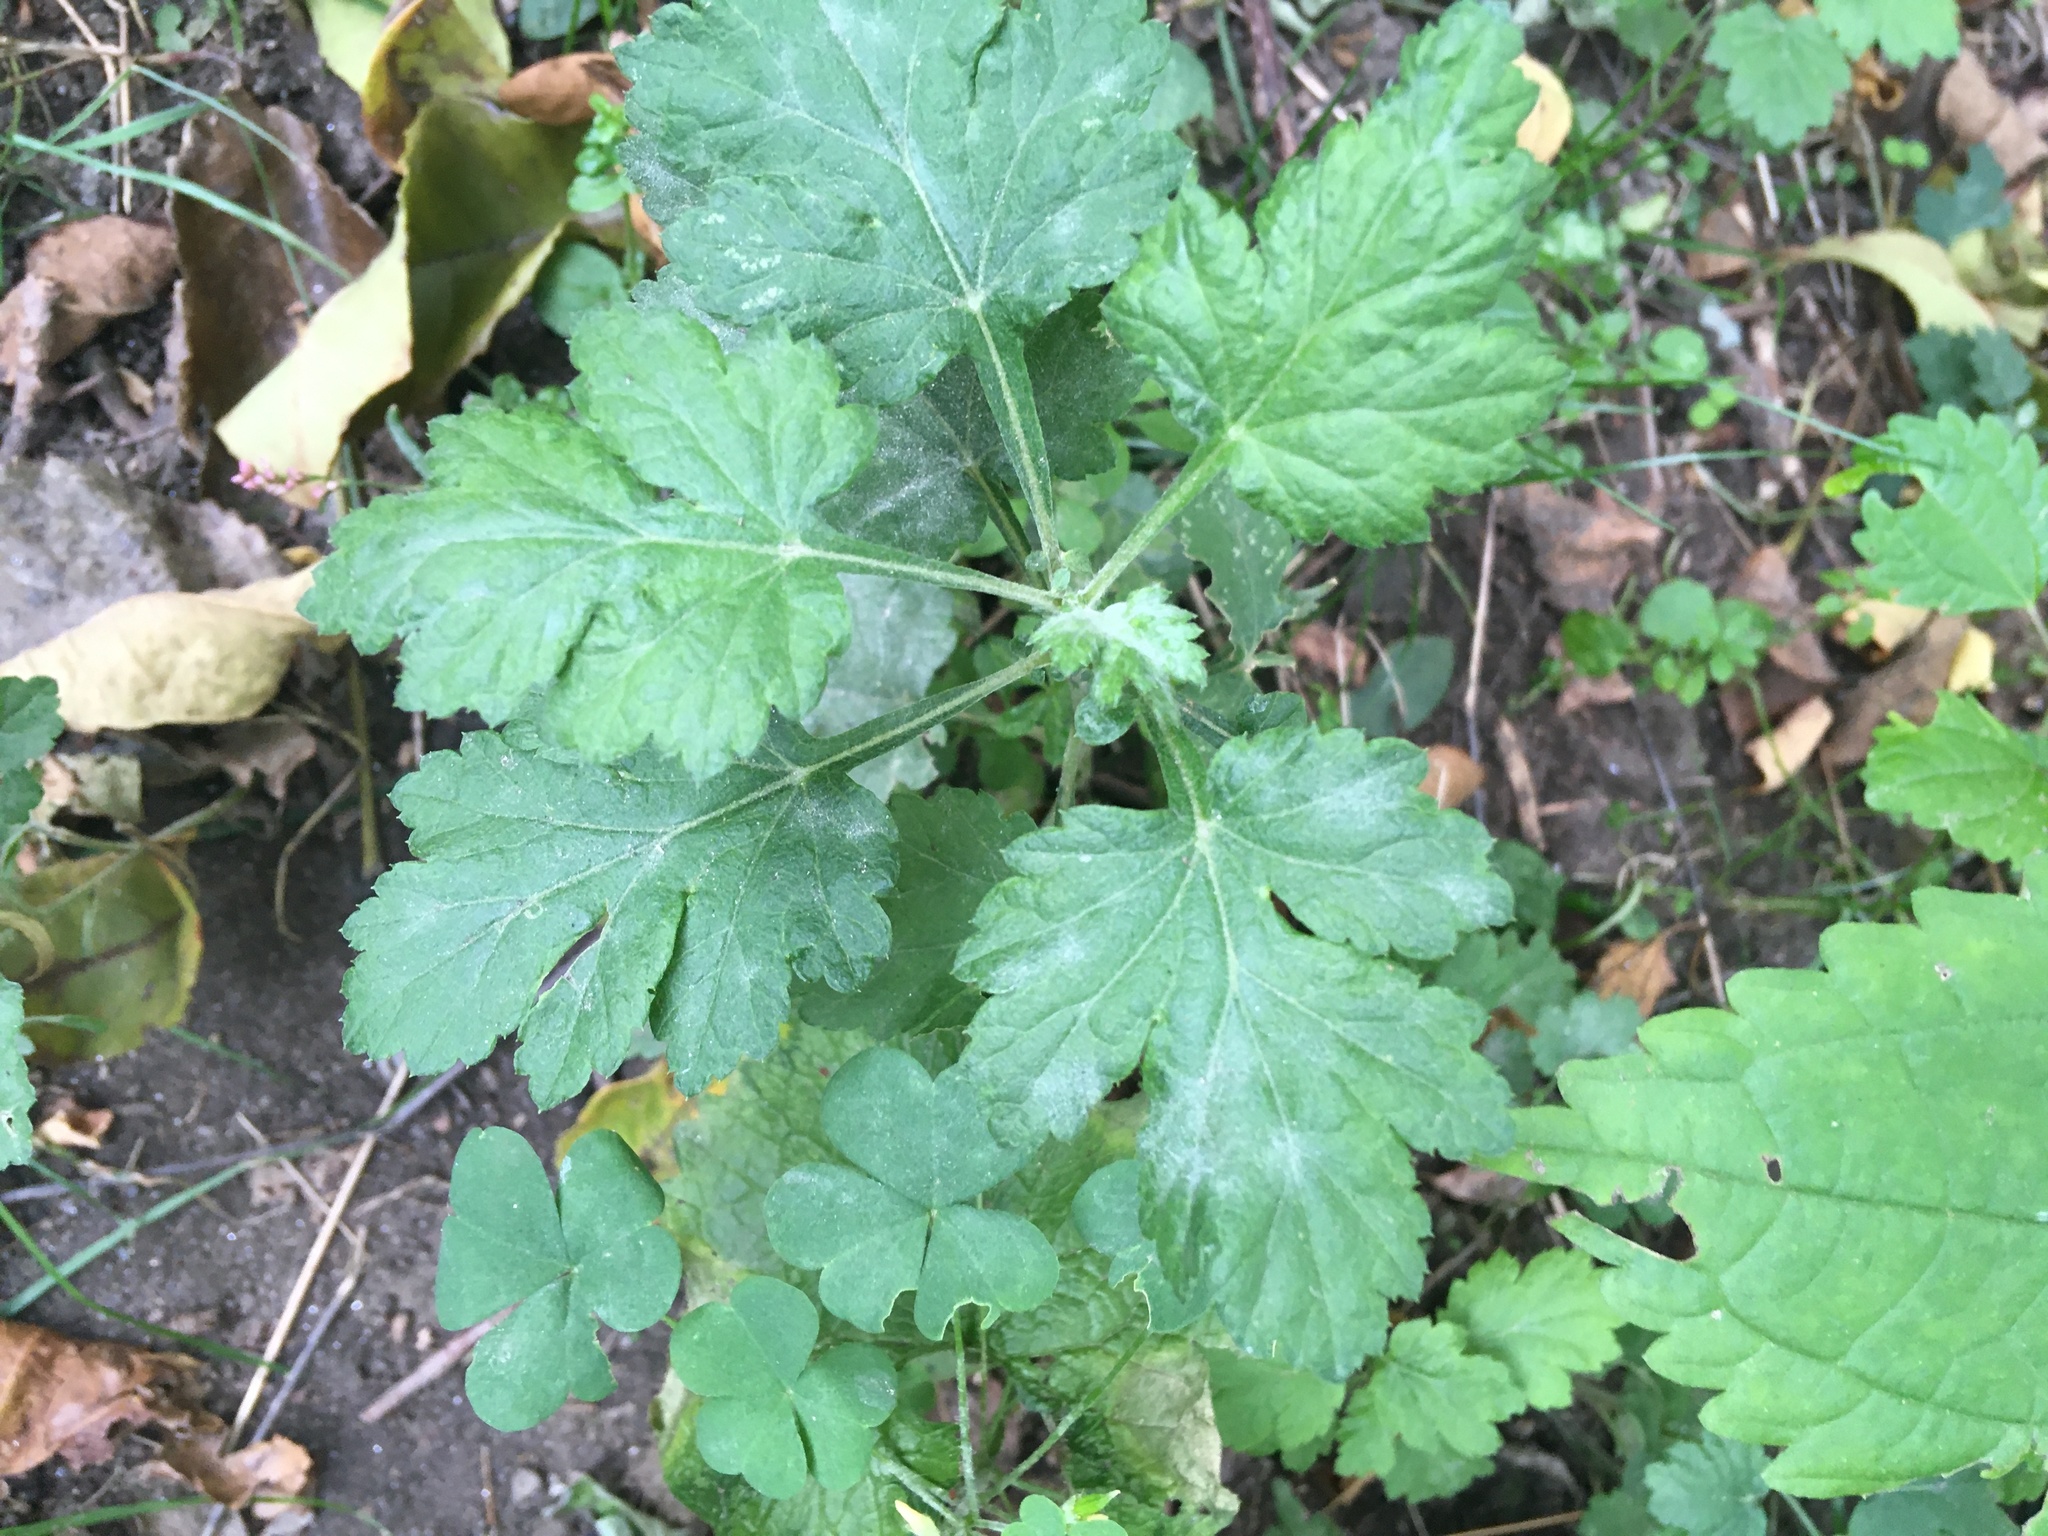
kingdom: Plantae
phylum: Tracheophyta
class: Magnoliopsida
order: Asterales
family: Asteraceae
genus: Artemisia
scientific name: Artemisia vulgaris
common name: Mugwort
